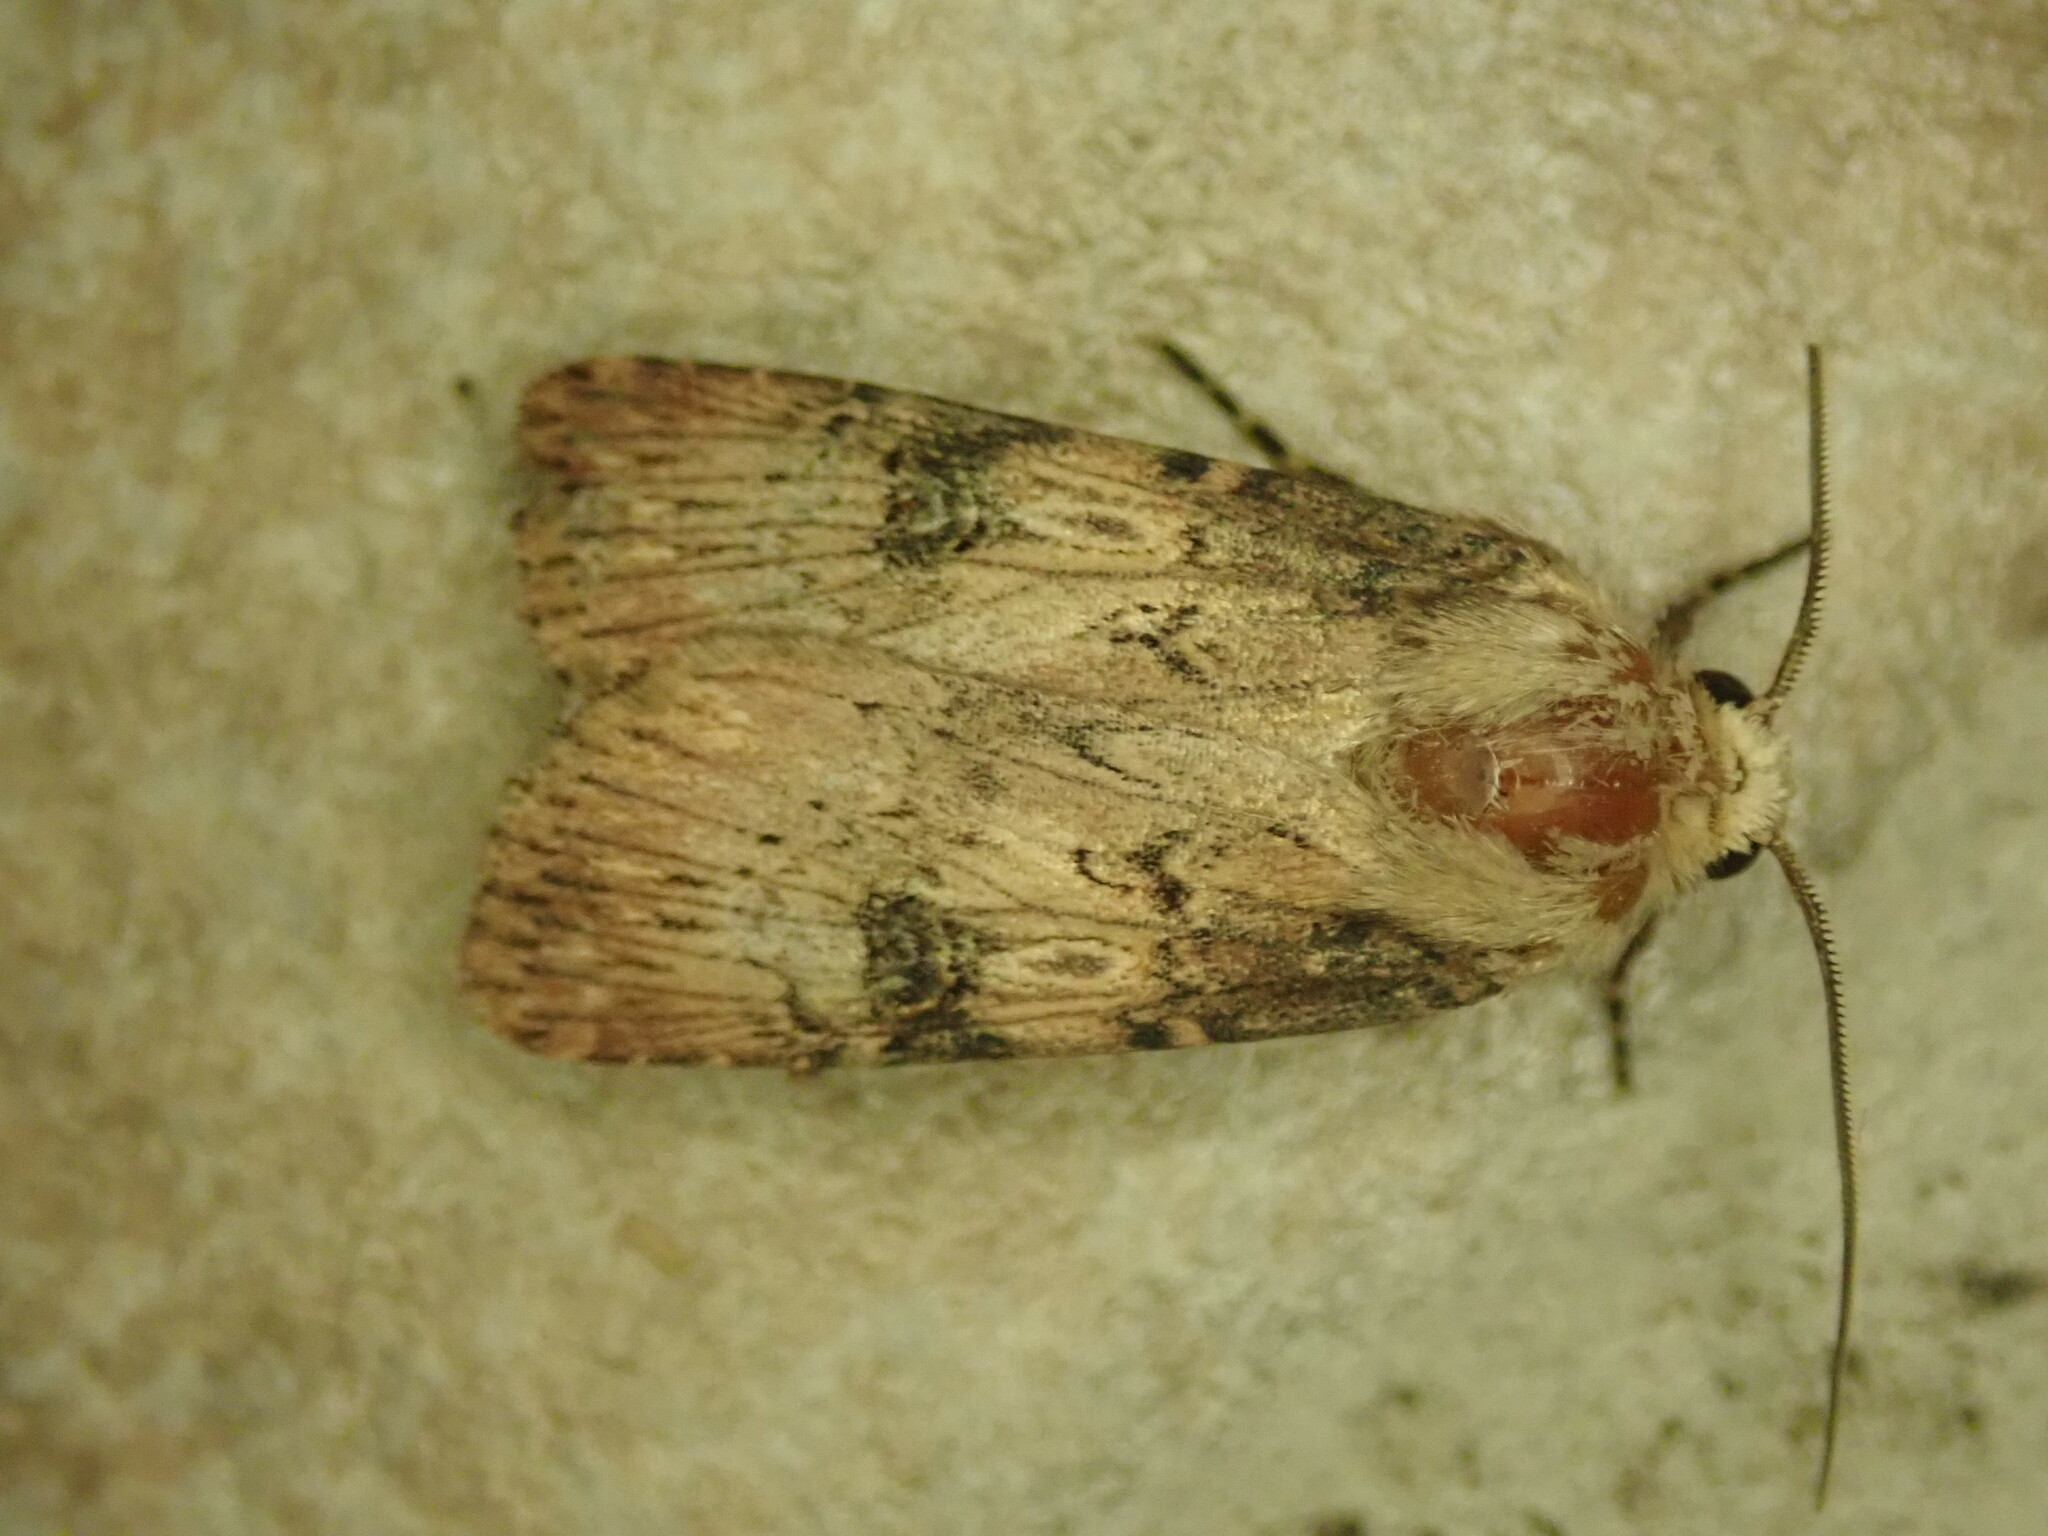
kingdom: Animalia
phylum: Arthropoda
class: Insecta
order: Lepidoptera
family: Noctuidae
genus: Agrotis
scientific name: Agrotis puta
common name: Shuttle-shaped dart
